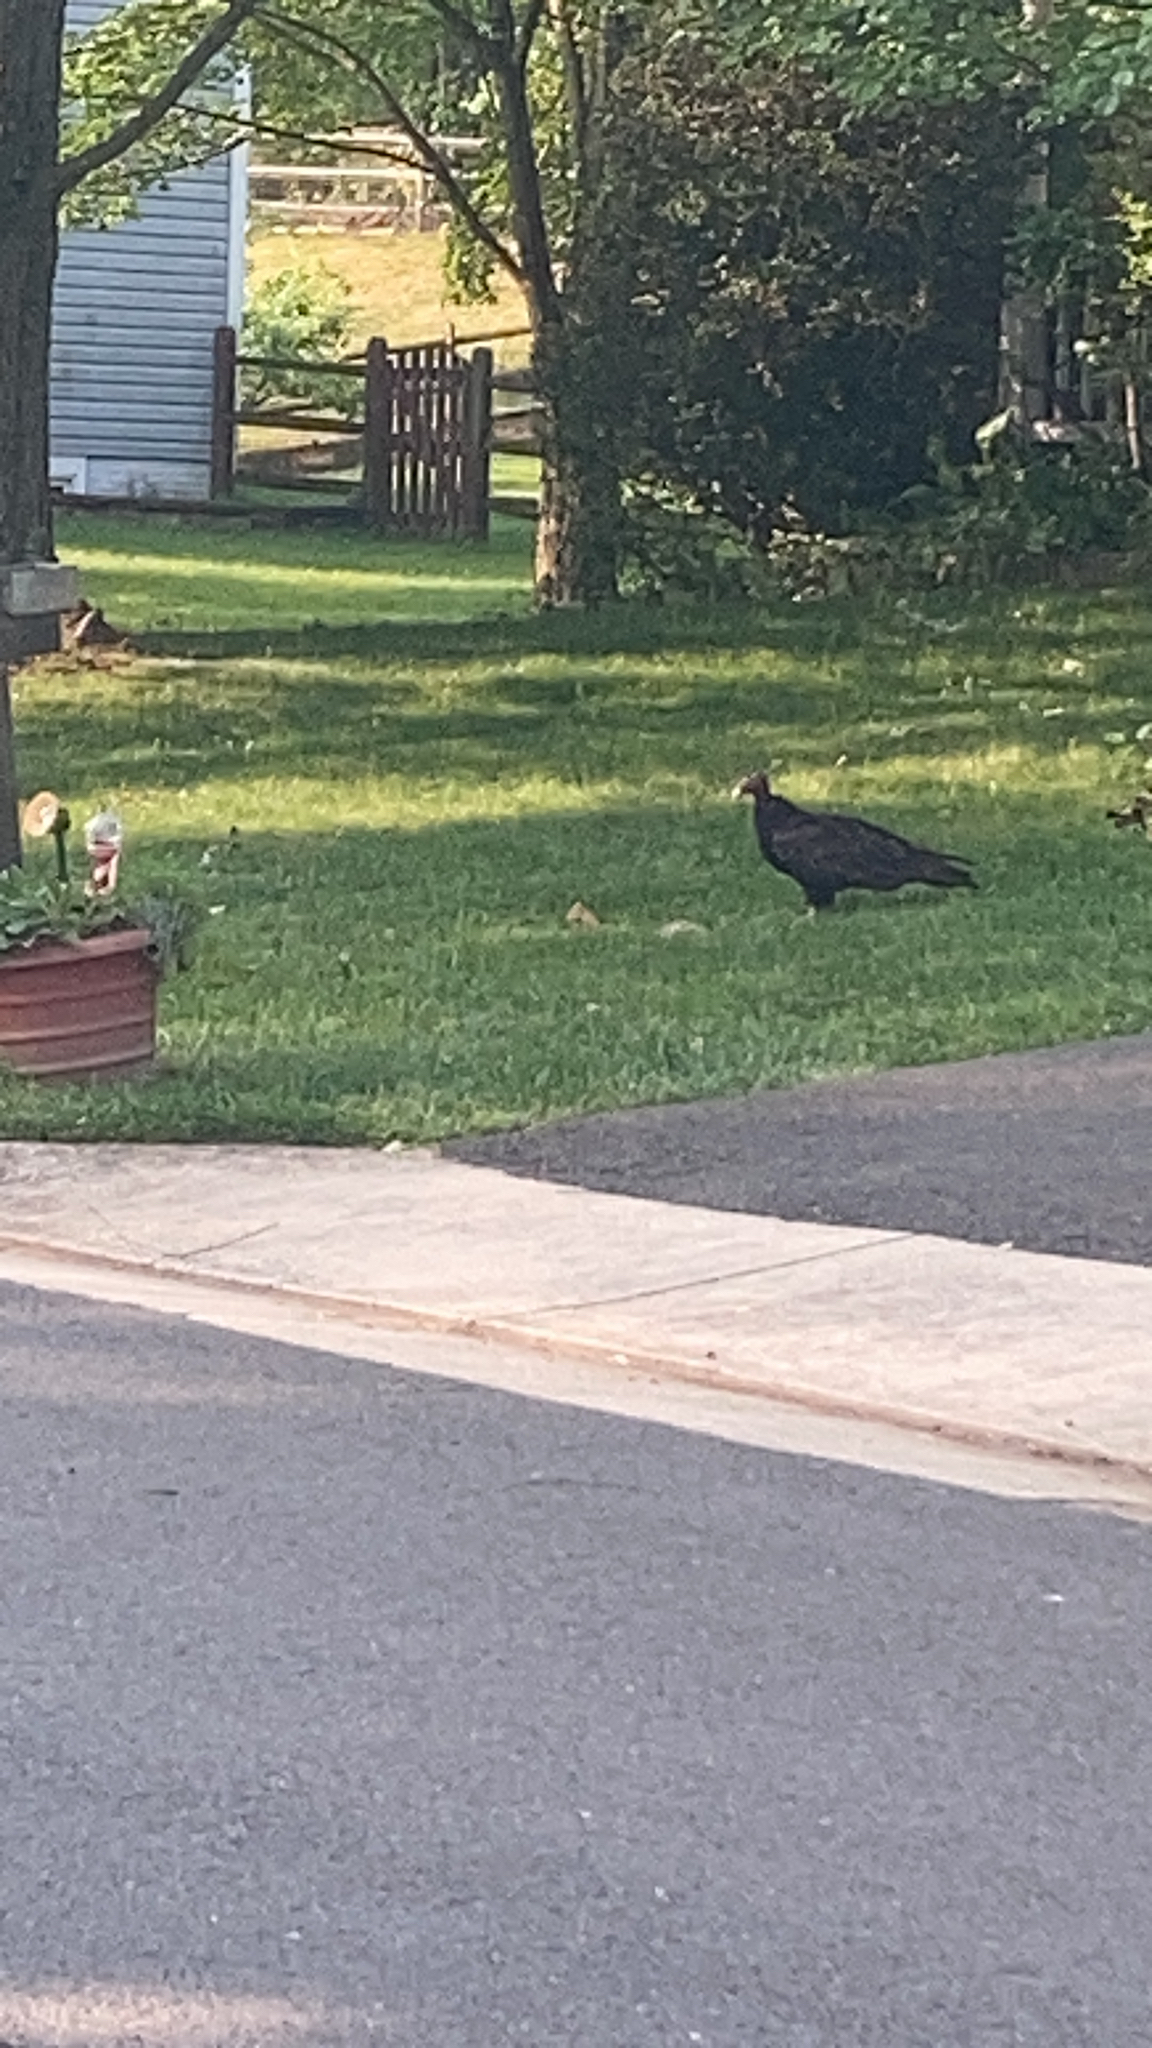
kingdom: Animalia
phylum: Chordata
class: Aves
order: Accipitriformes
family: Cathartidae
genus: Cathartes
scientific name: Cathartes aura
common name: Turkey vulture
